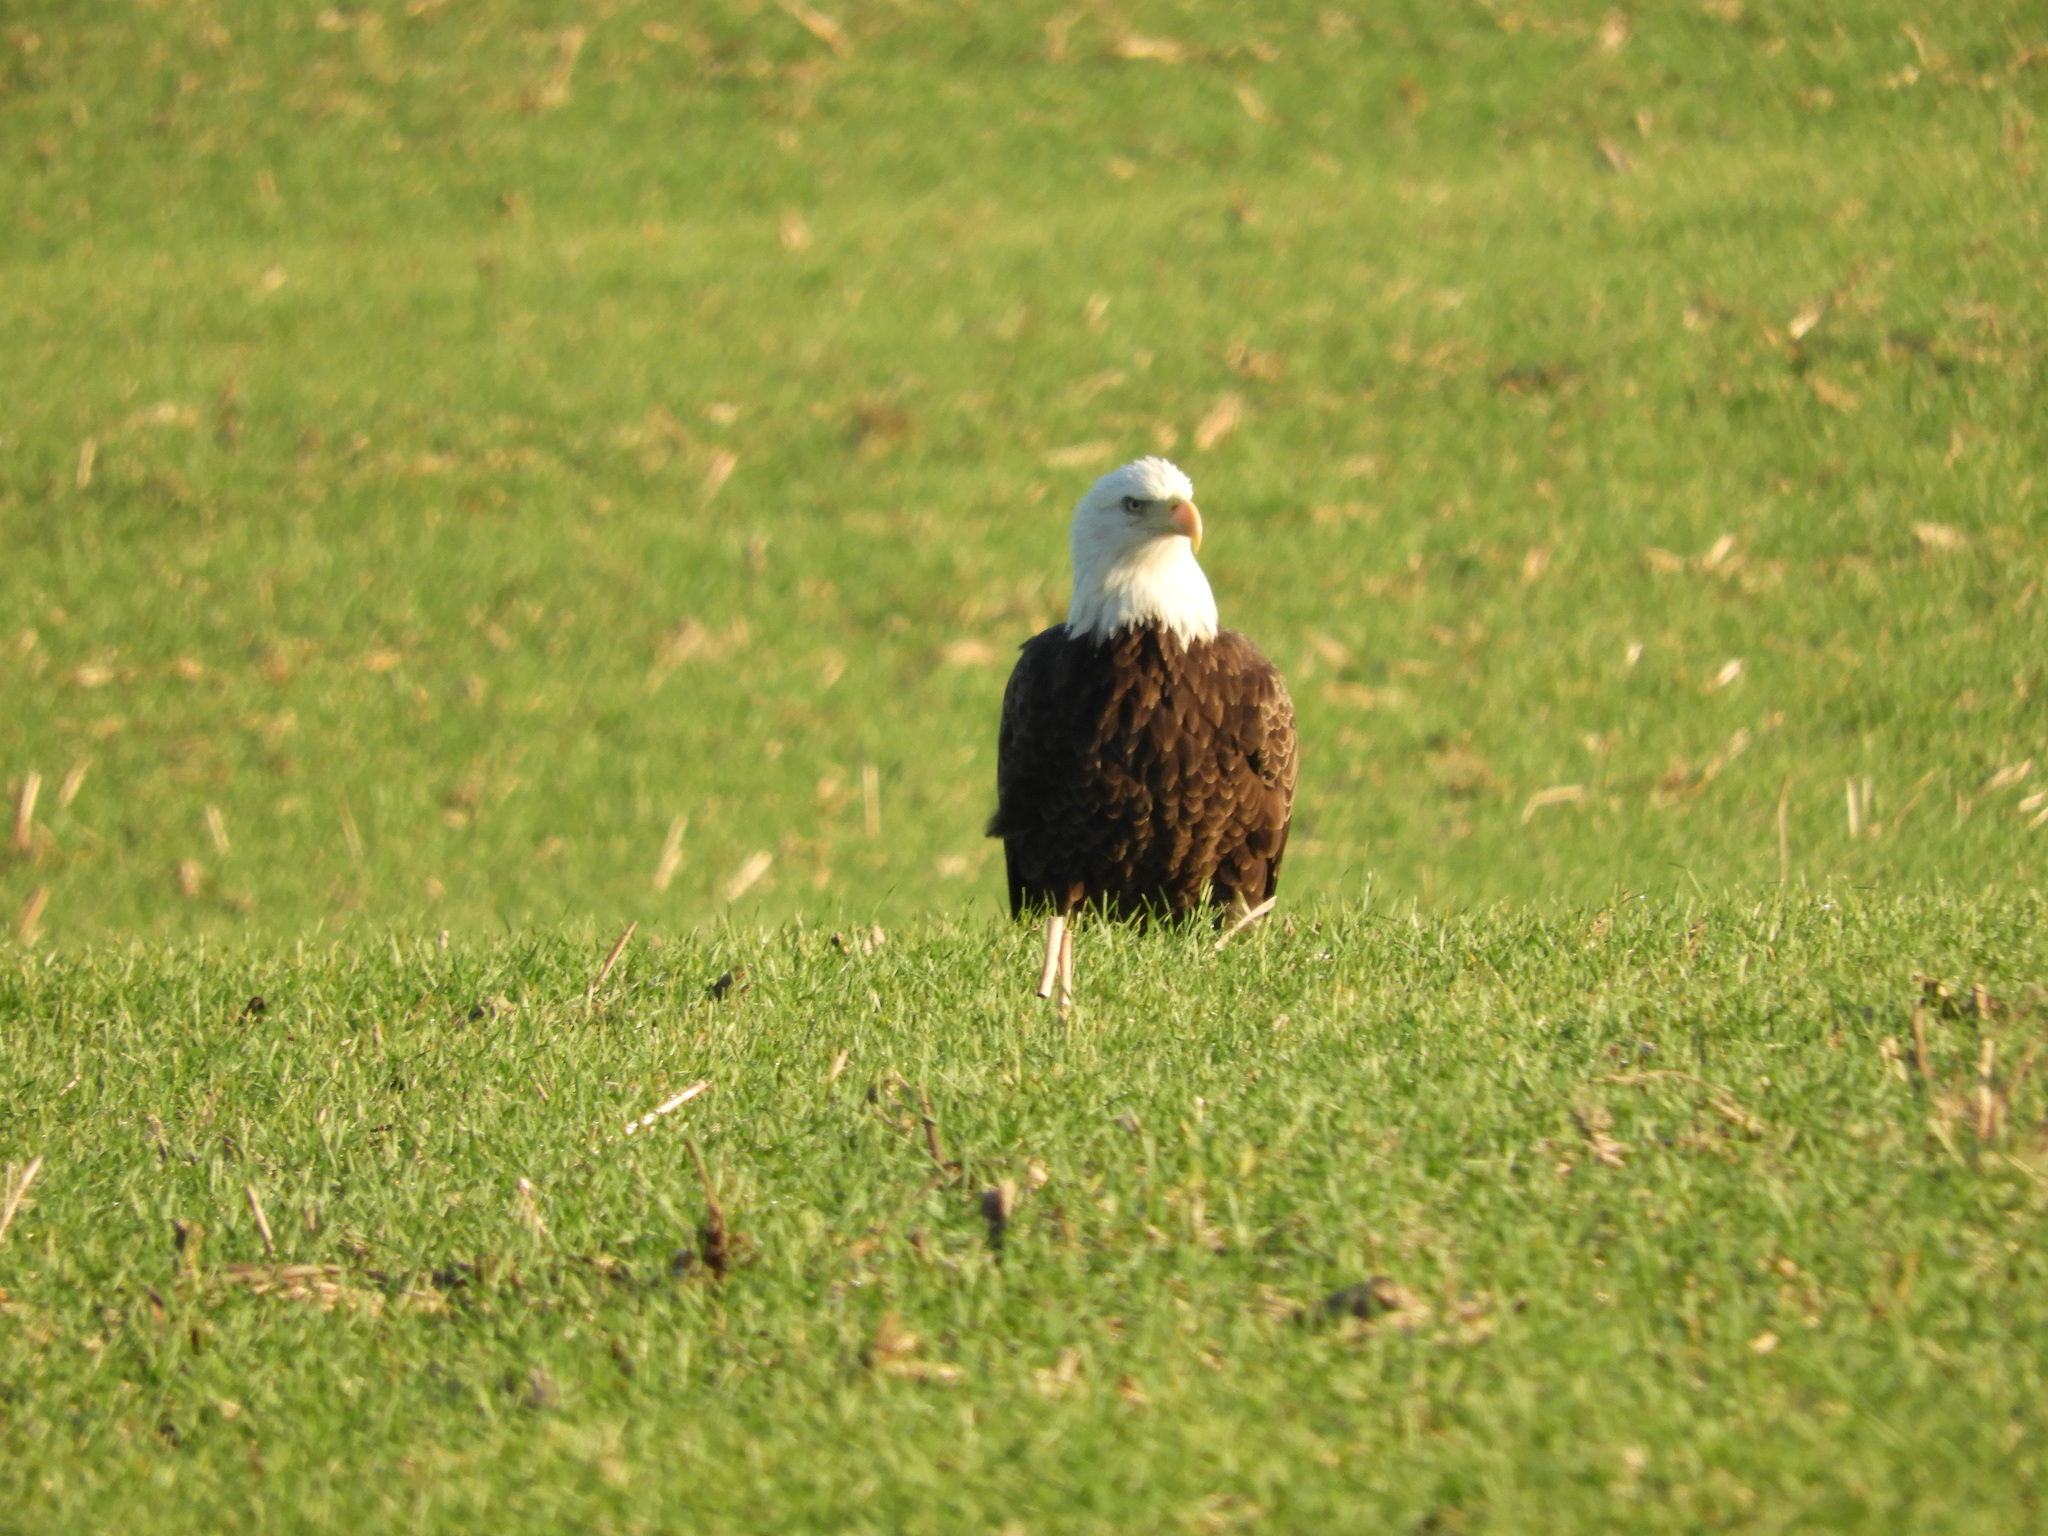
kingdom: Animalia
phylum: Chordata
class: Aves
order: Accipitriformes
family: Accipitridae
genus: Haliaeetus
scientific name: Haliaeetus leucocephalus
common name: Bald eagle
